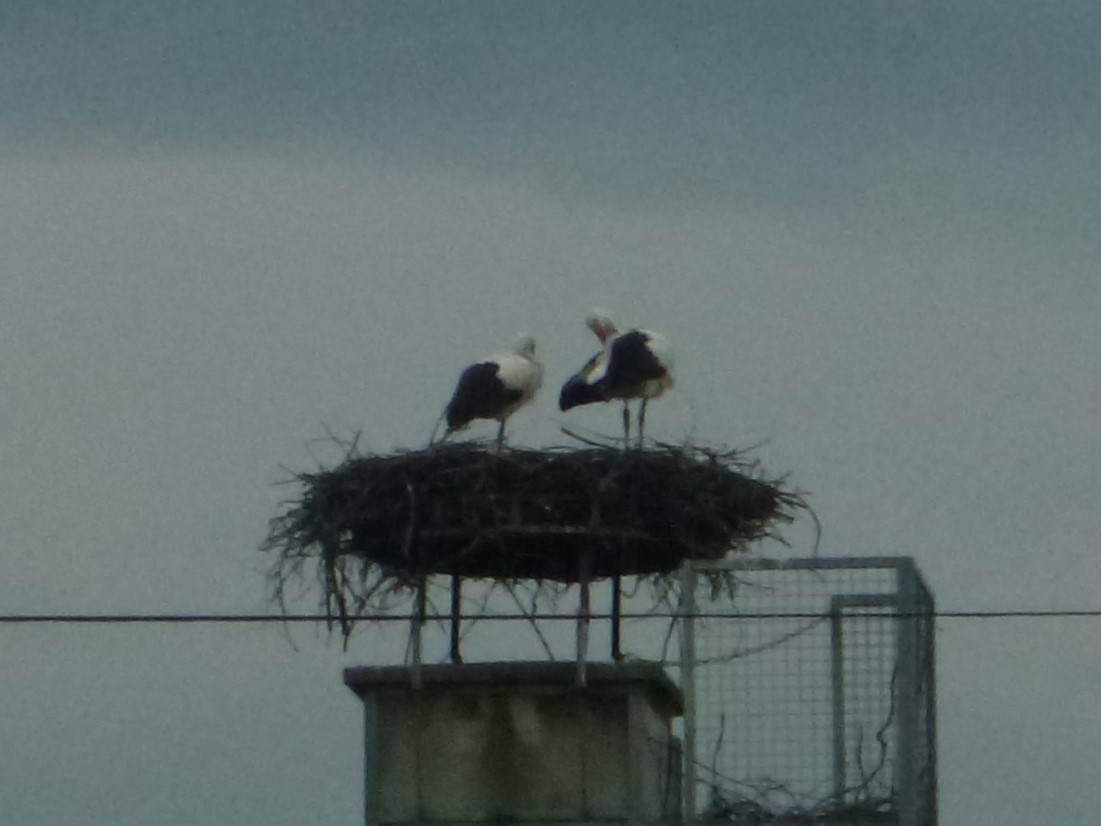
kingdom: Animalia
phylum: Chordata
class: Aves
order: Ciconiiformes
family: Ciconiidae
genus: Ciconia
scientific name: Ciconia ciconia
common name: White stork
